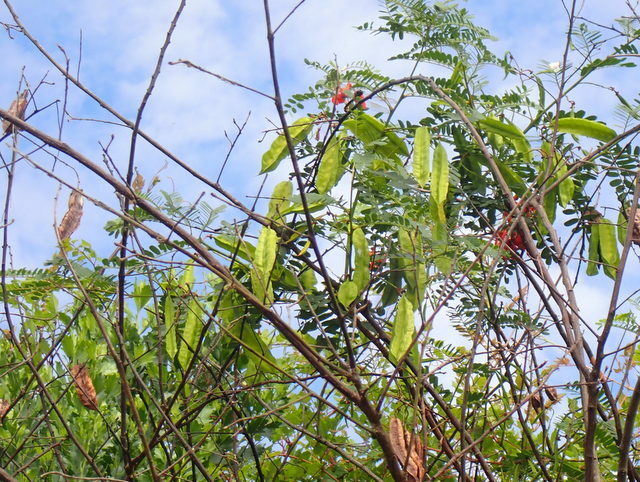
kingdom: Plantae
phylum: Tracheophyta
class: Magnoliopsida
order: Fabales
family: Fabaceae
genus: Sesbania
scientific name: Sesbania punicea
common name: Rattlebox
